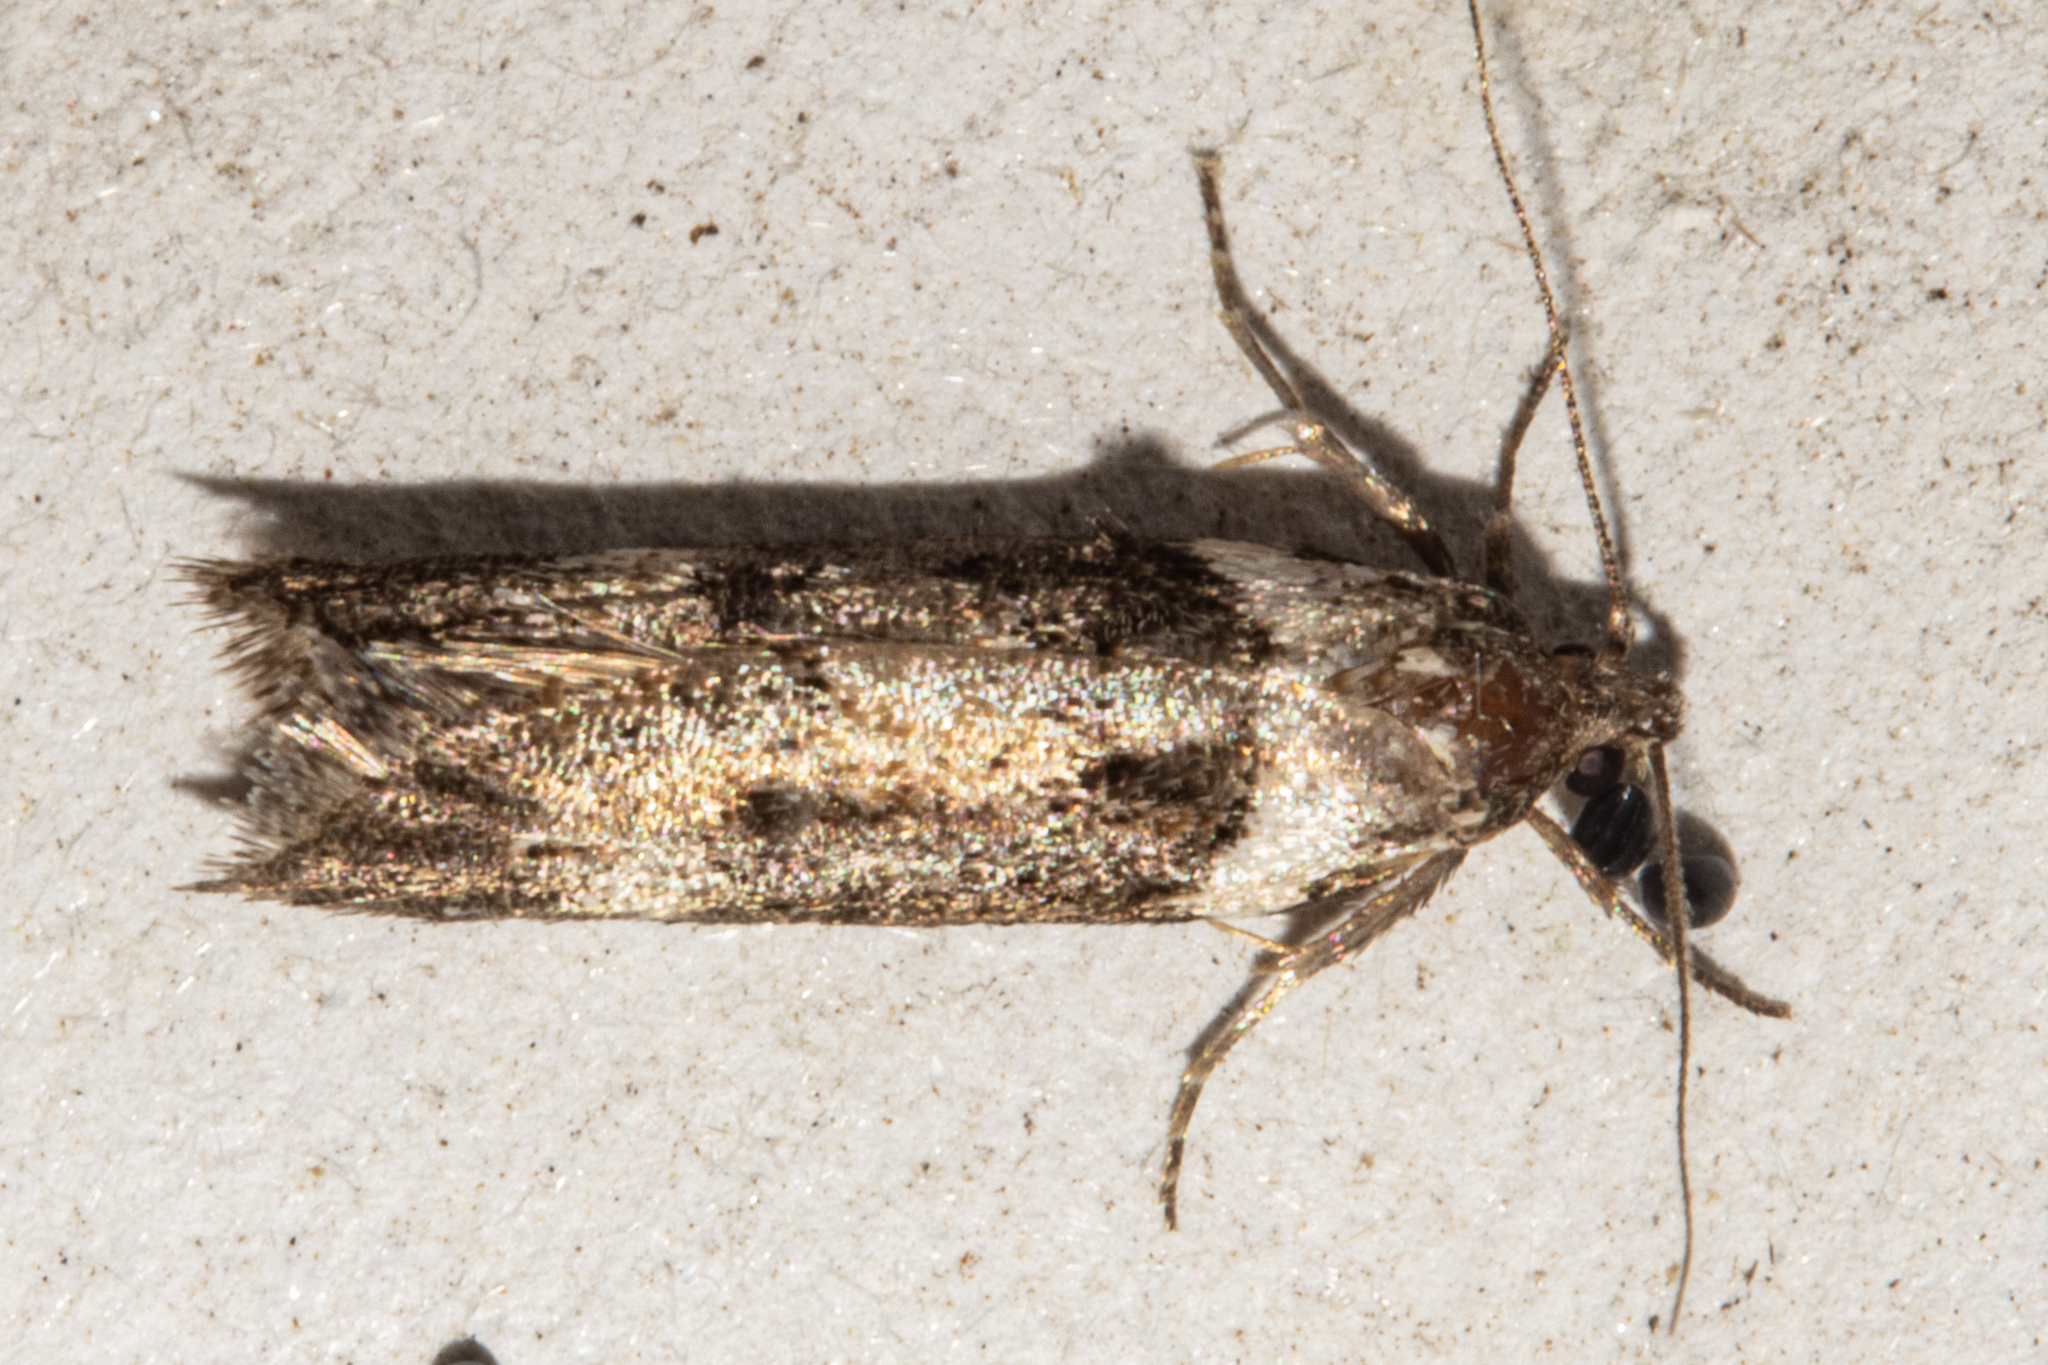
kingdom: Animalia
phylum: Arthropoda
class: Insecta
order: Lepidoptera
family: Oecophoridae
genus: Trachypepla
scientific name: Trachypepla conspicuella
